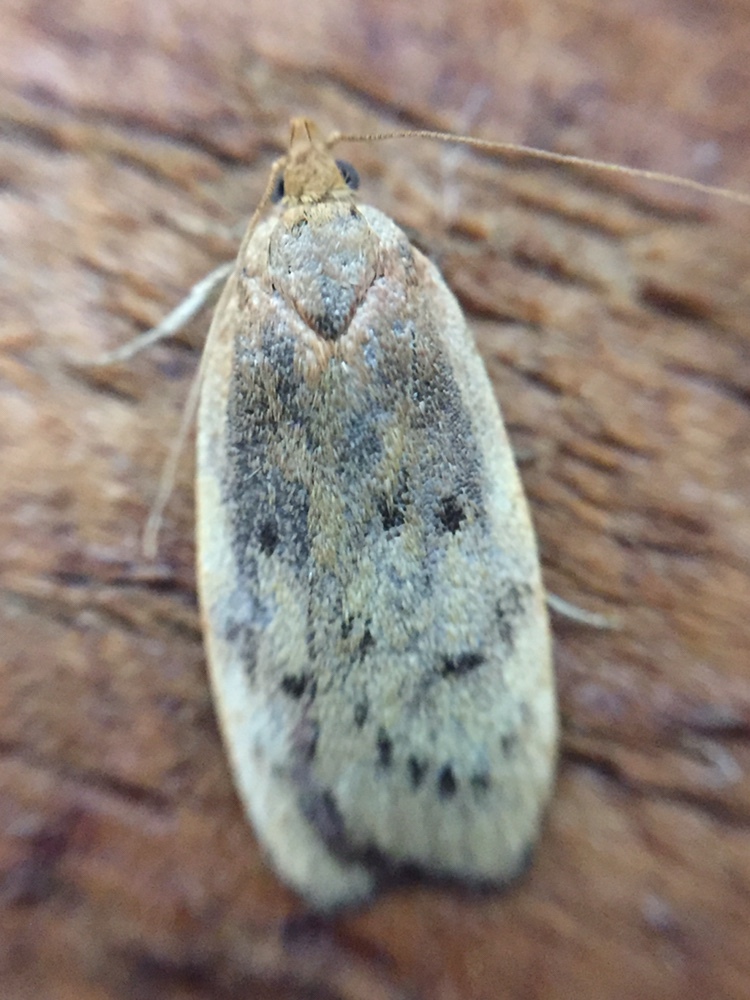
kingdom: Animalia
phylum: Arthropoda
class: Insecta
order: Lepidoptera
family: Depressariidae
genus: Phaeosaces
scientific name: Phaeosaces coarctatella
